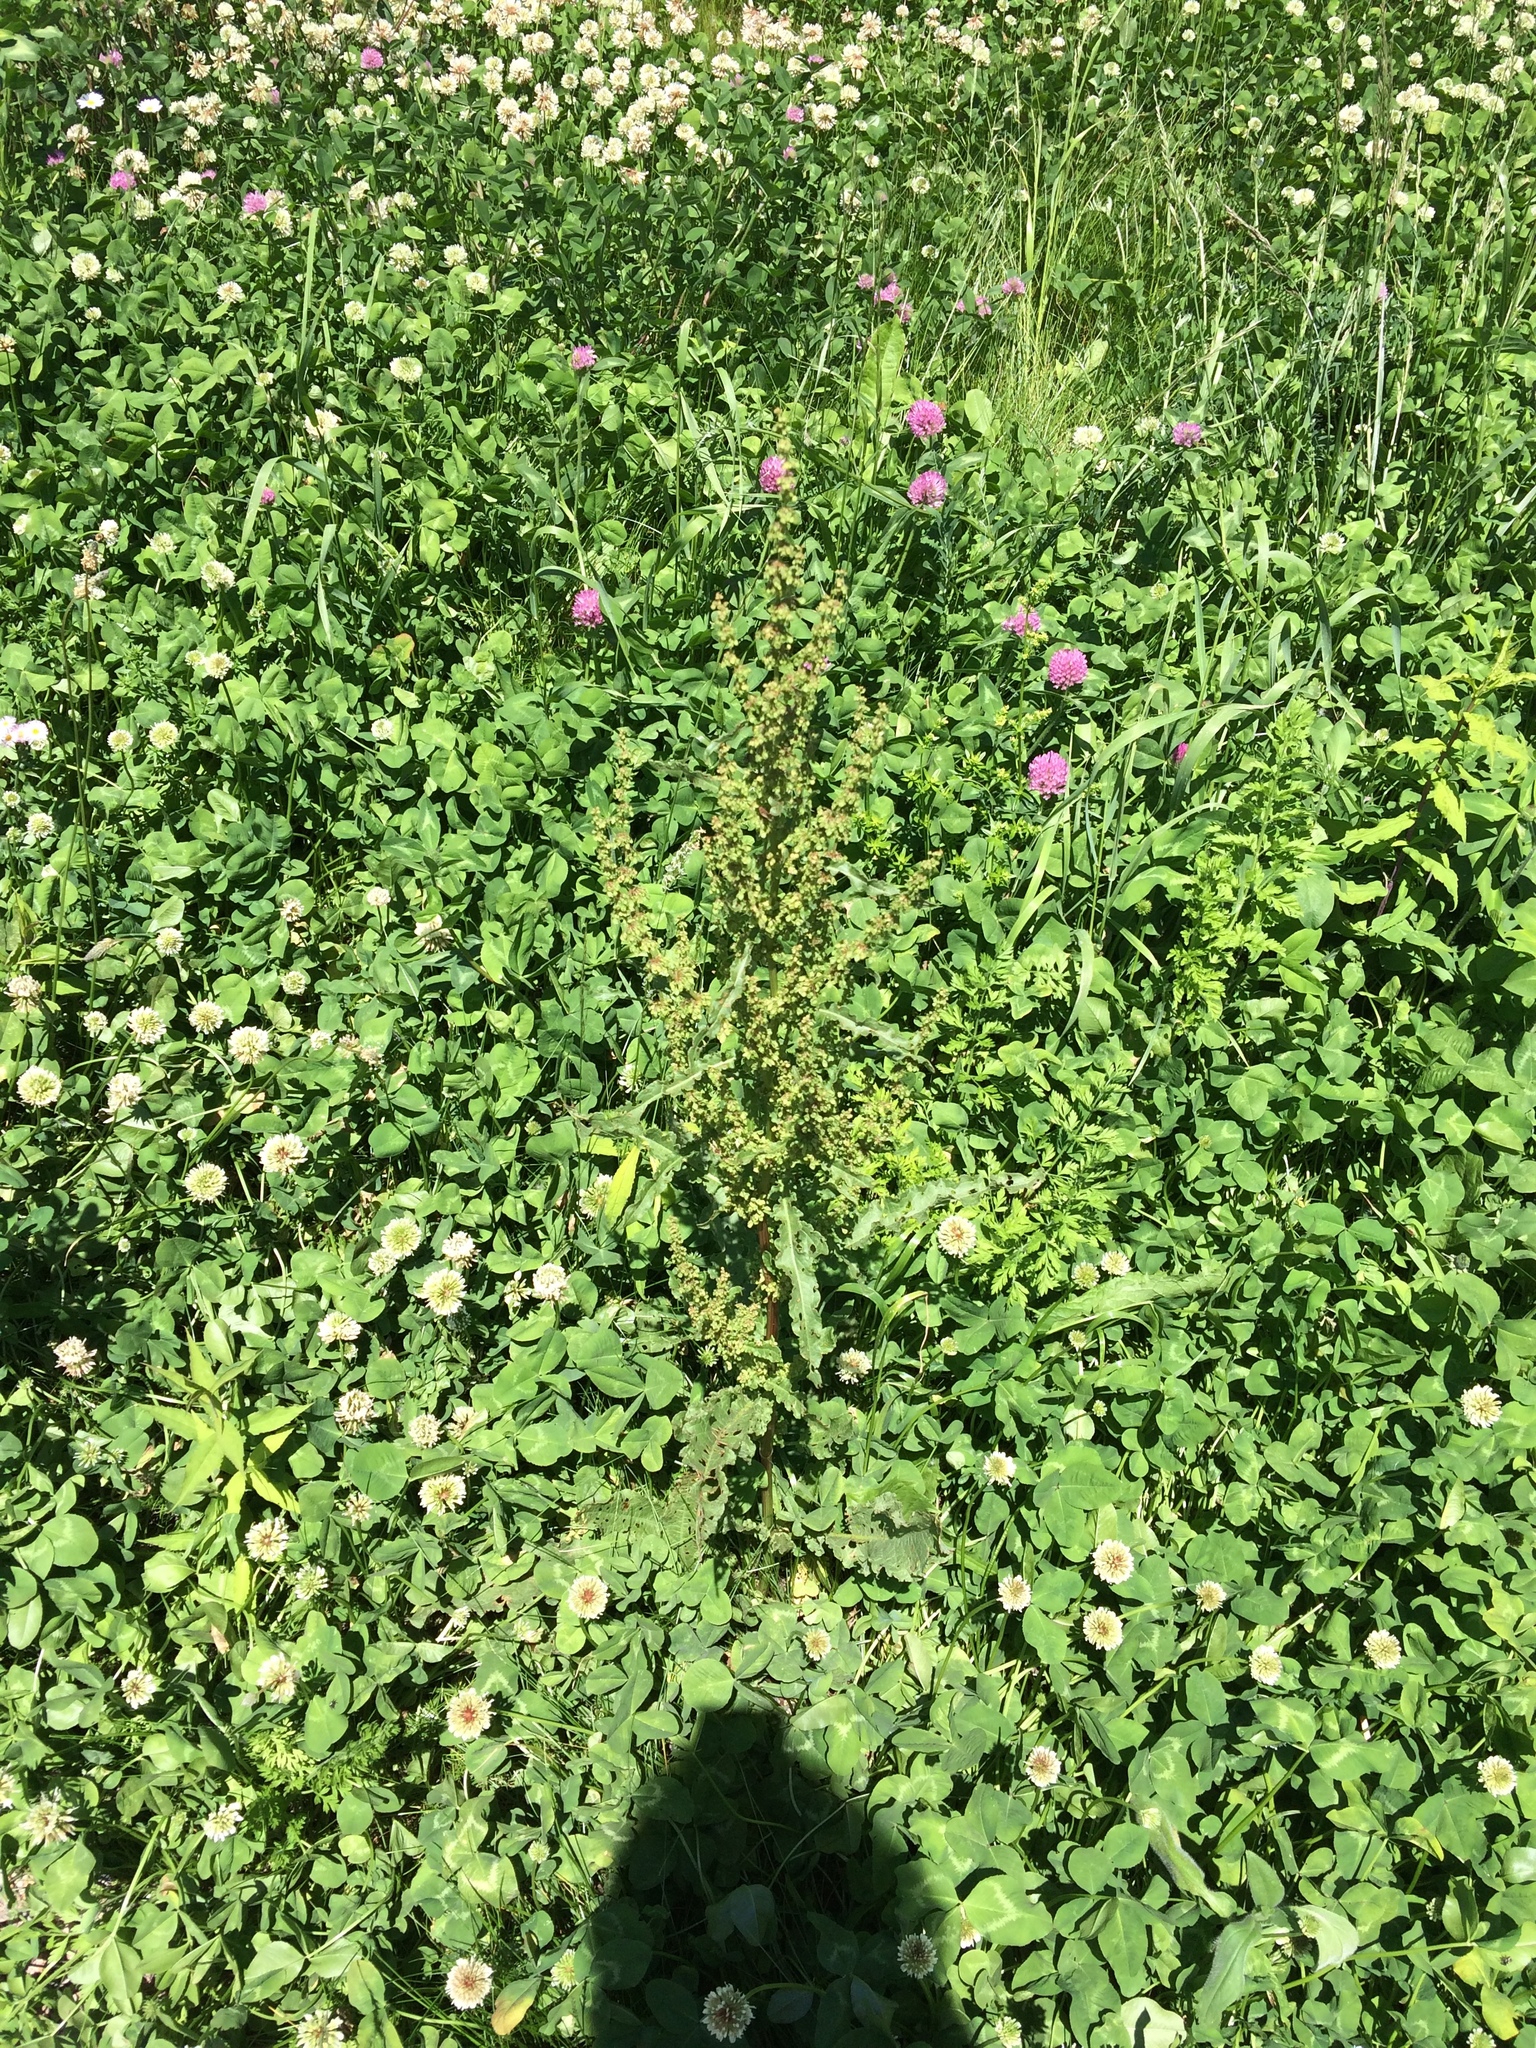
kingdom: Plantae
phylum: Tracheophyta
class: Magnoliopsida
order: Caryophyllales
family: Polygonaceae
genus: Rumex
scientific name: Rumex crispus
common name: Curled dock
